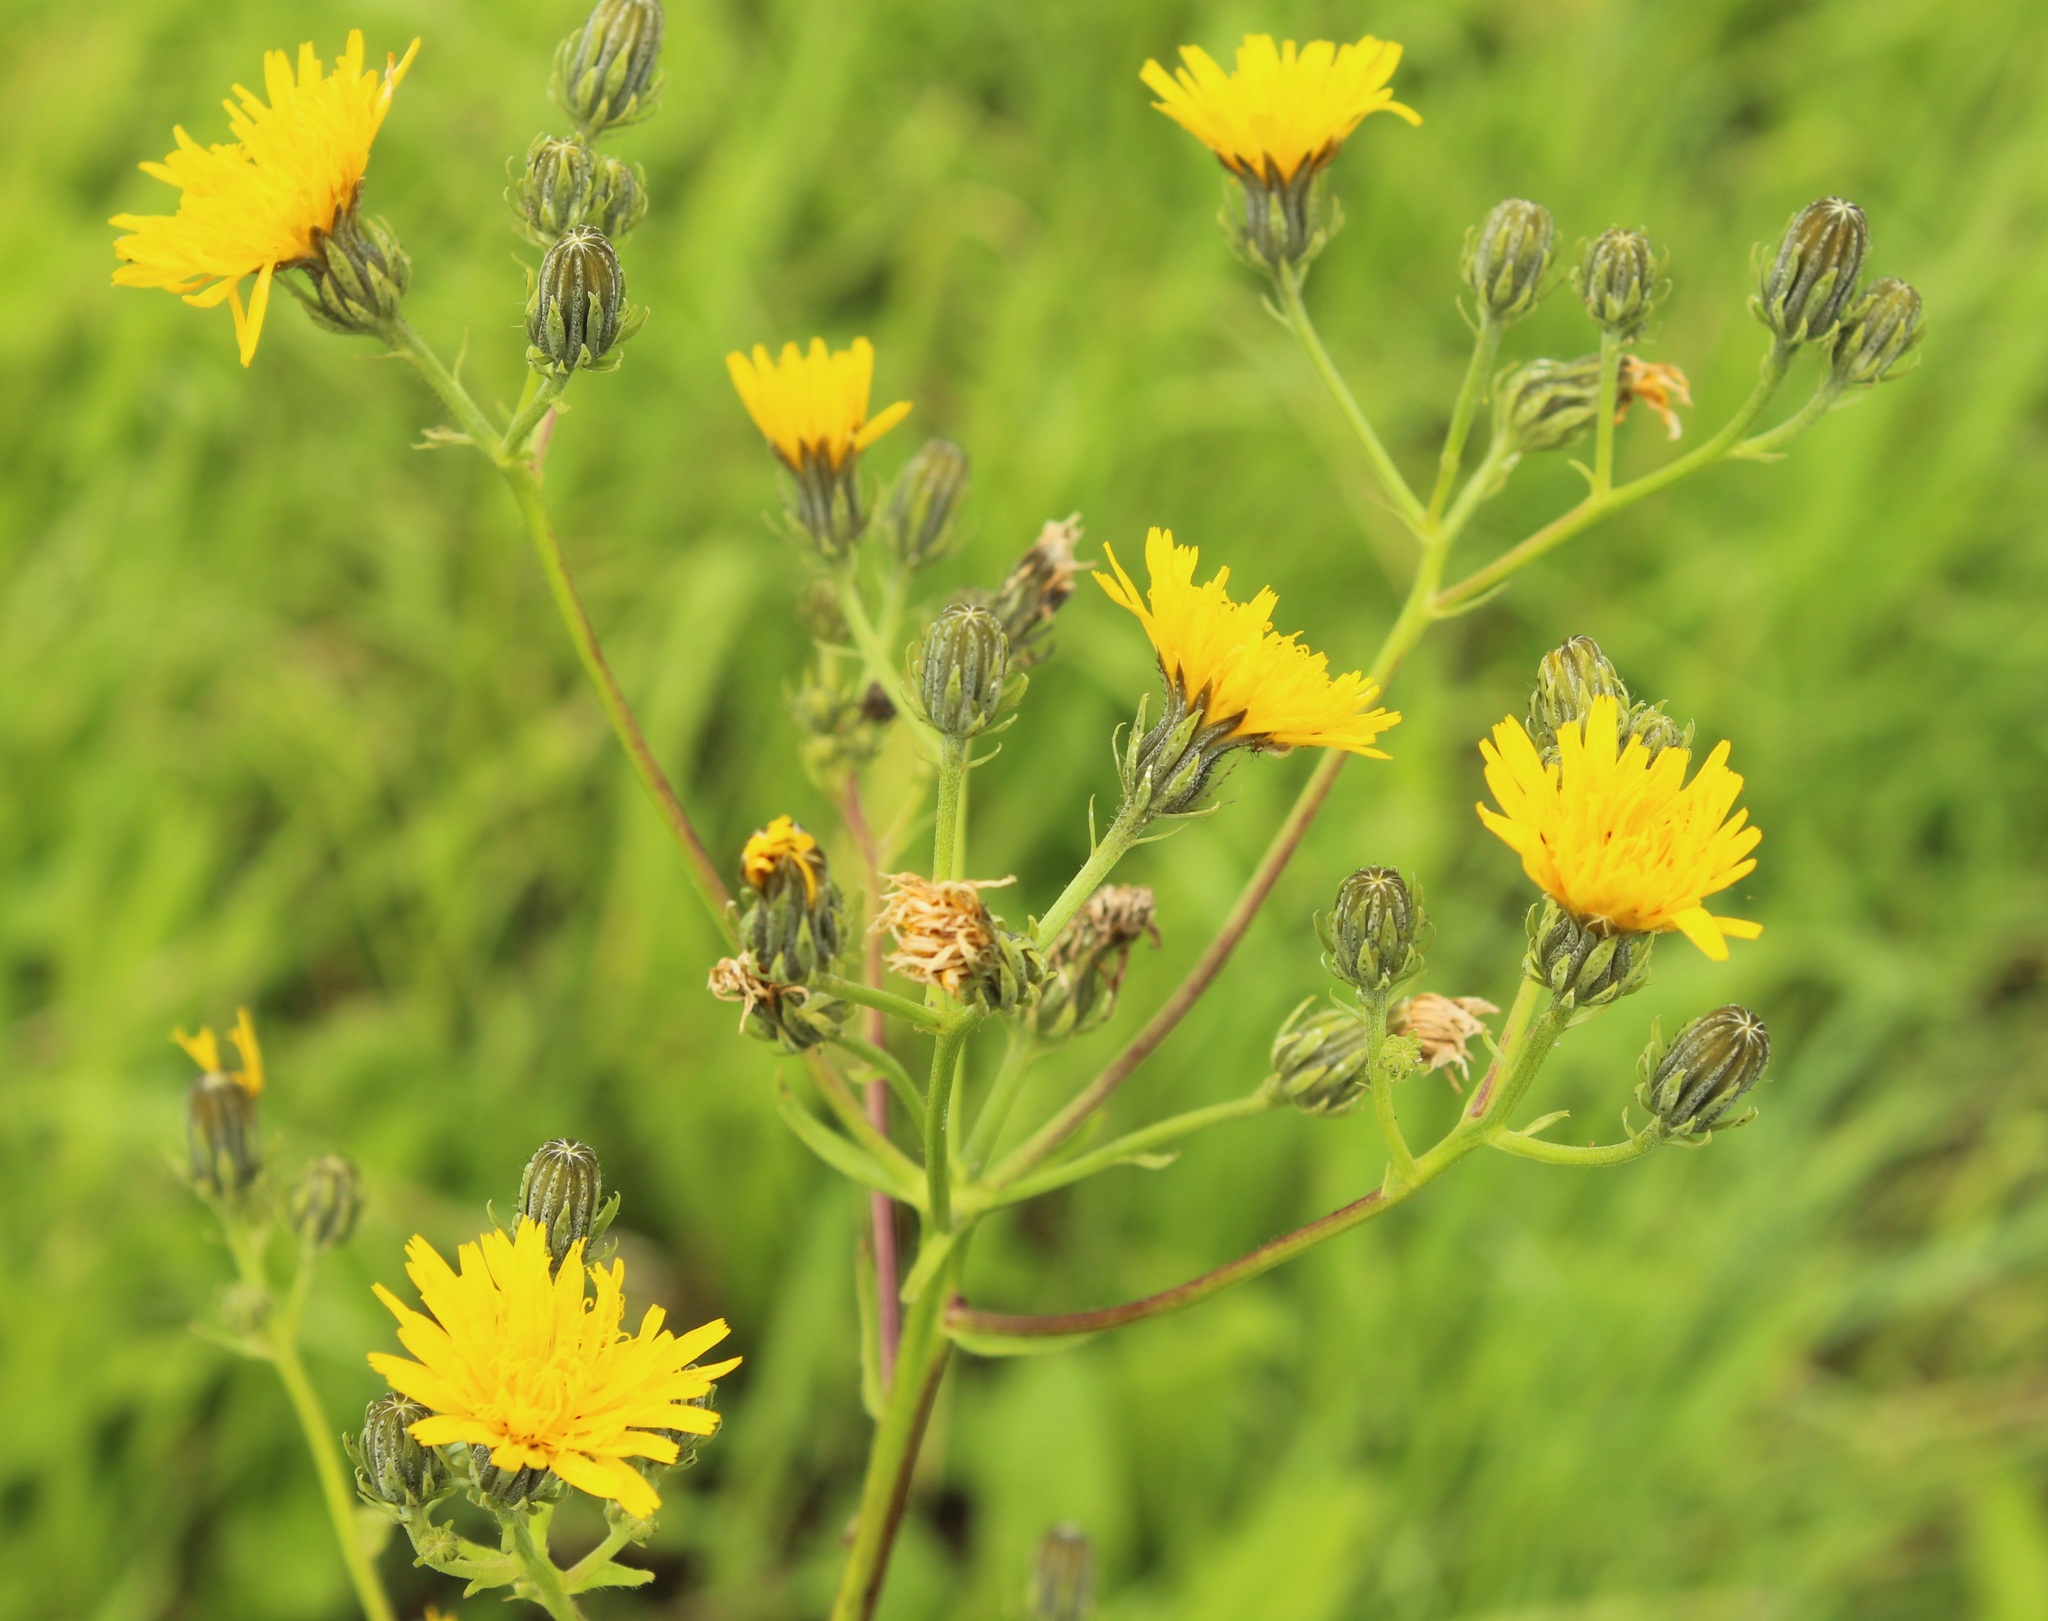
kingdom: Plantae
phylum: Tracheophyta
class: Magnoliopsida
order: Asterales
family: Asteraceae
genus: Picris
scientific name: Picris hieracioides
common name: Hawkweed oxtongue
